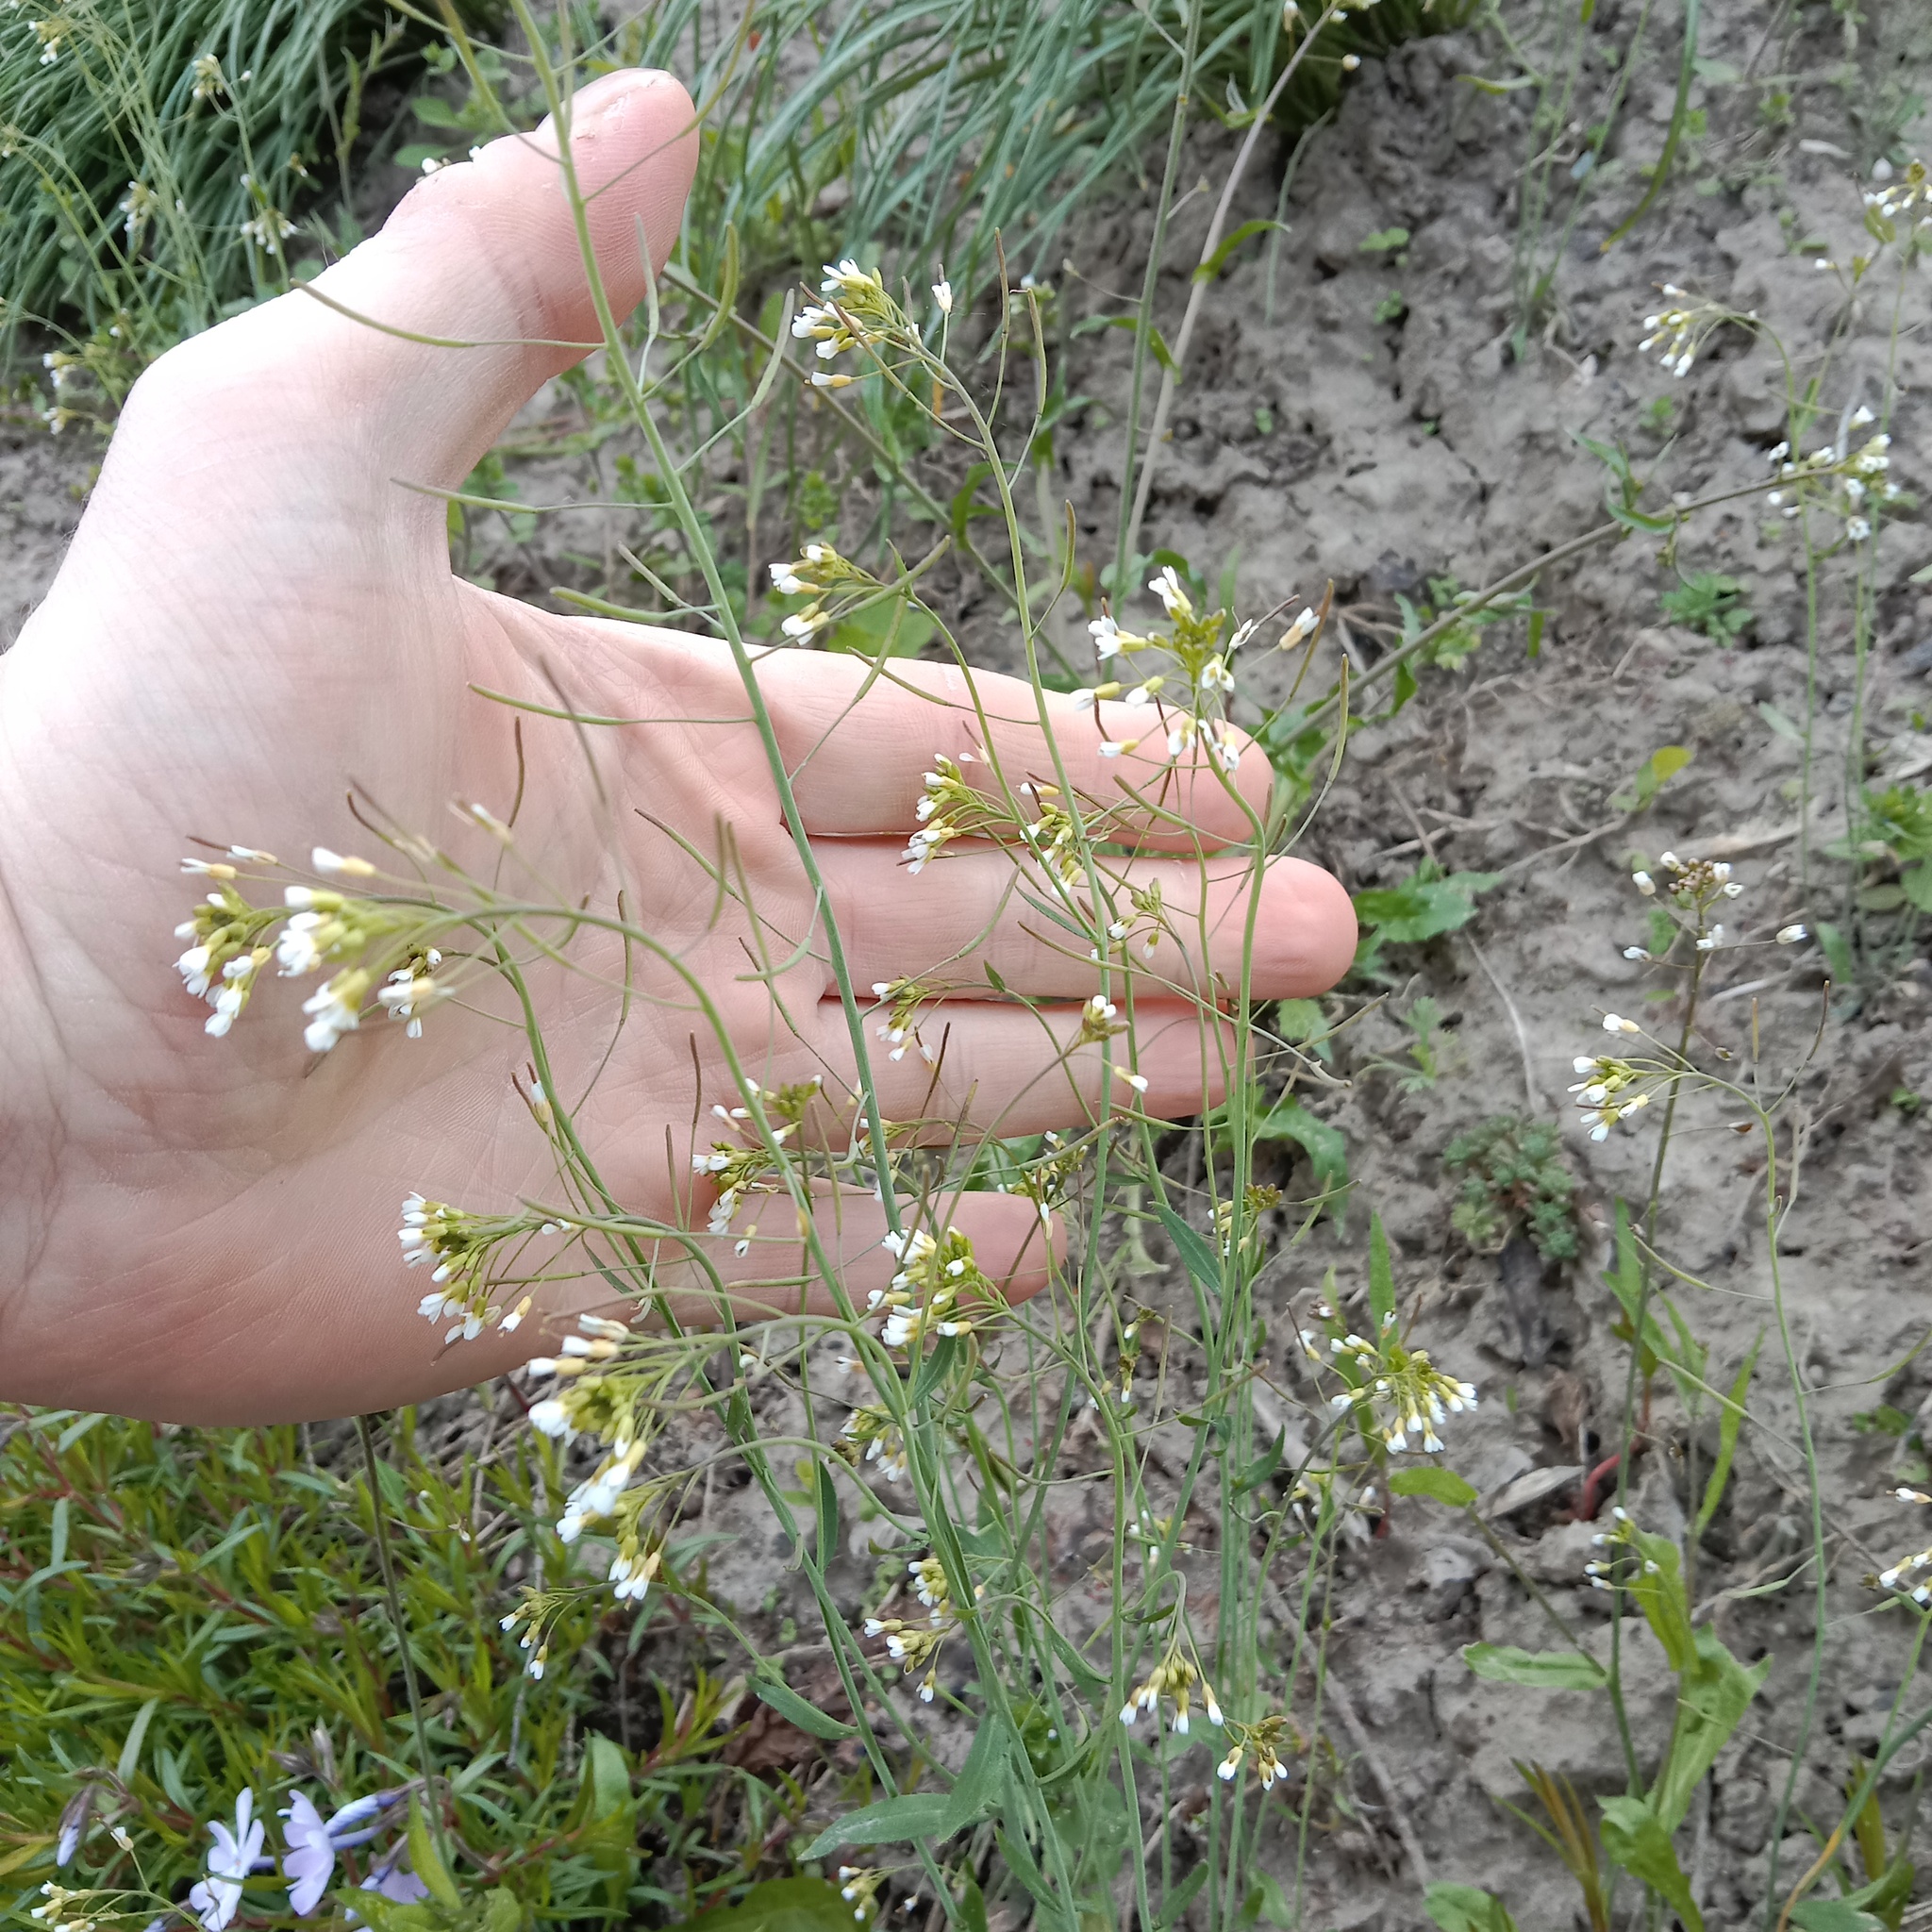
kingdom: Plantae
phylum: Tracheophyta
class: Magnoliopsida
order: Brassicales
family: Brassicaceae
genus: Arabidopsis
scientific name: Arabidopsis thaliana
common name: Thale cress
